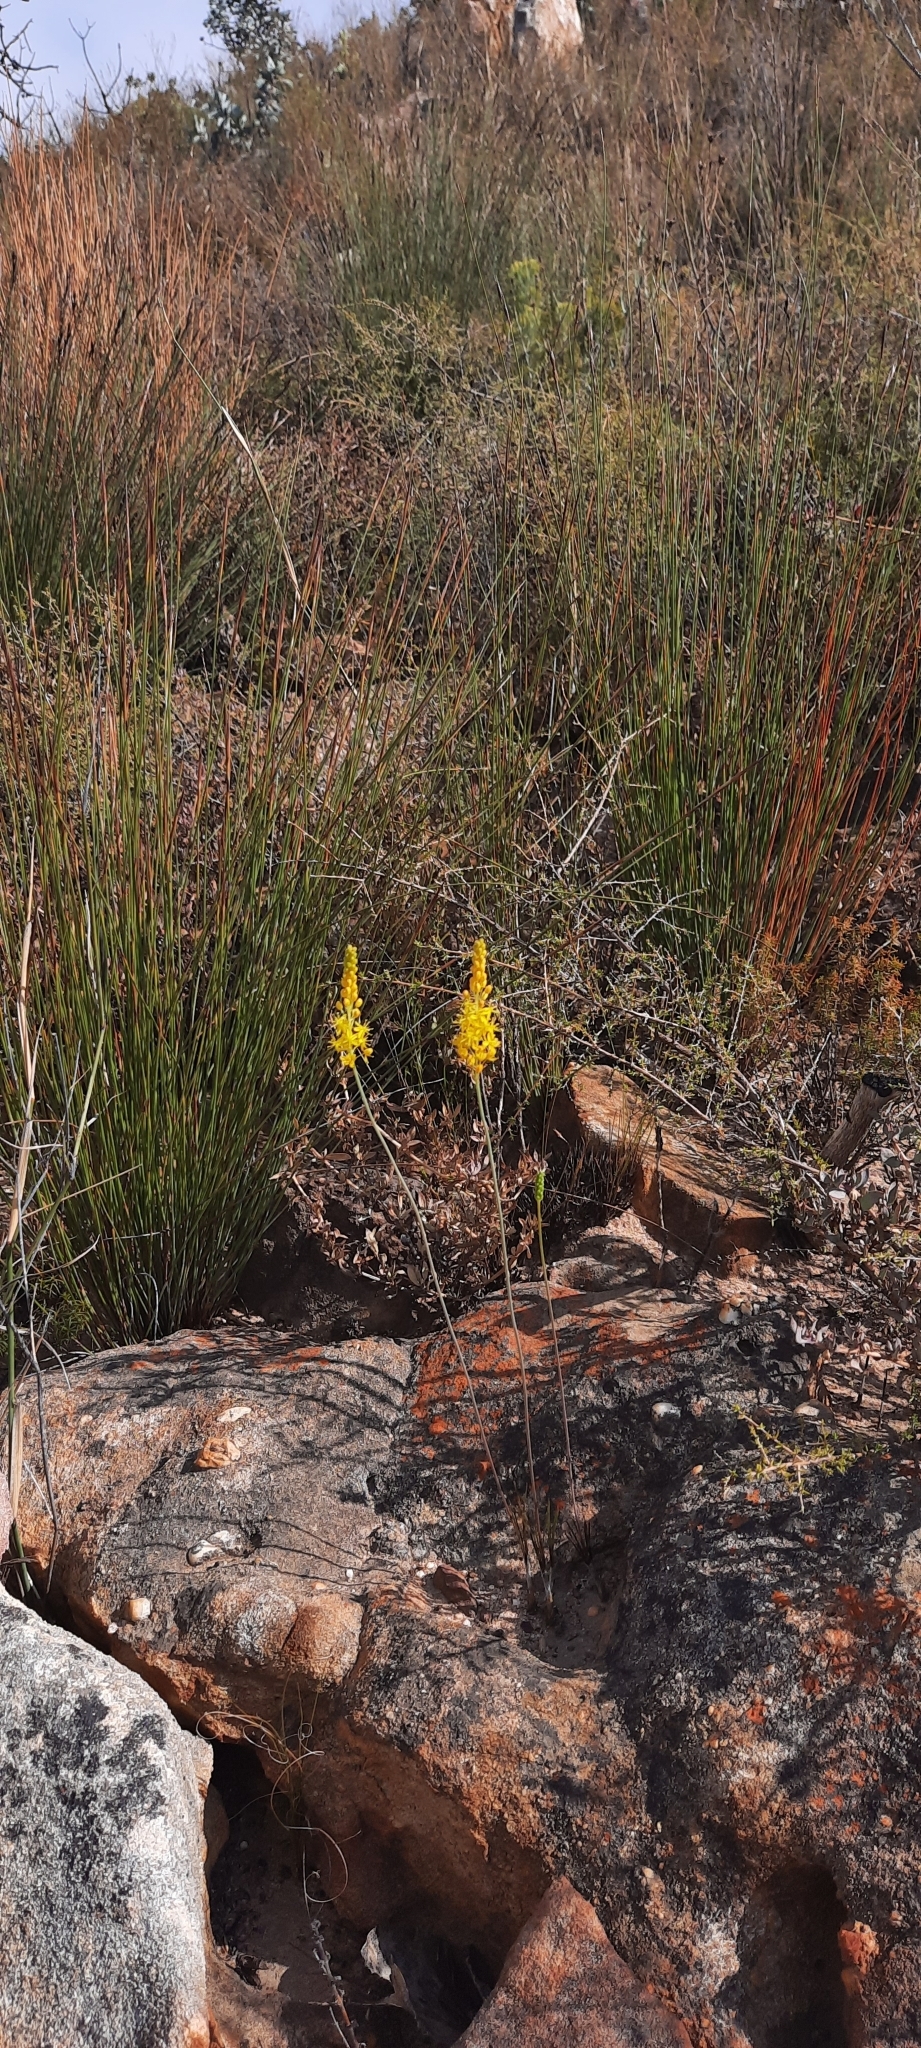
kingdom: Plantae
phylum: Tracheophyta
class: Liliopsida
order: Asparagales
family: Asphodelaceae
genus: Bulbinella
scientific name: Bulbinella divaginata
